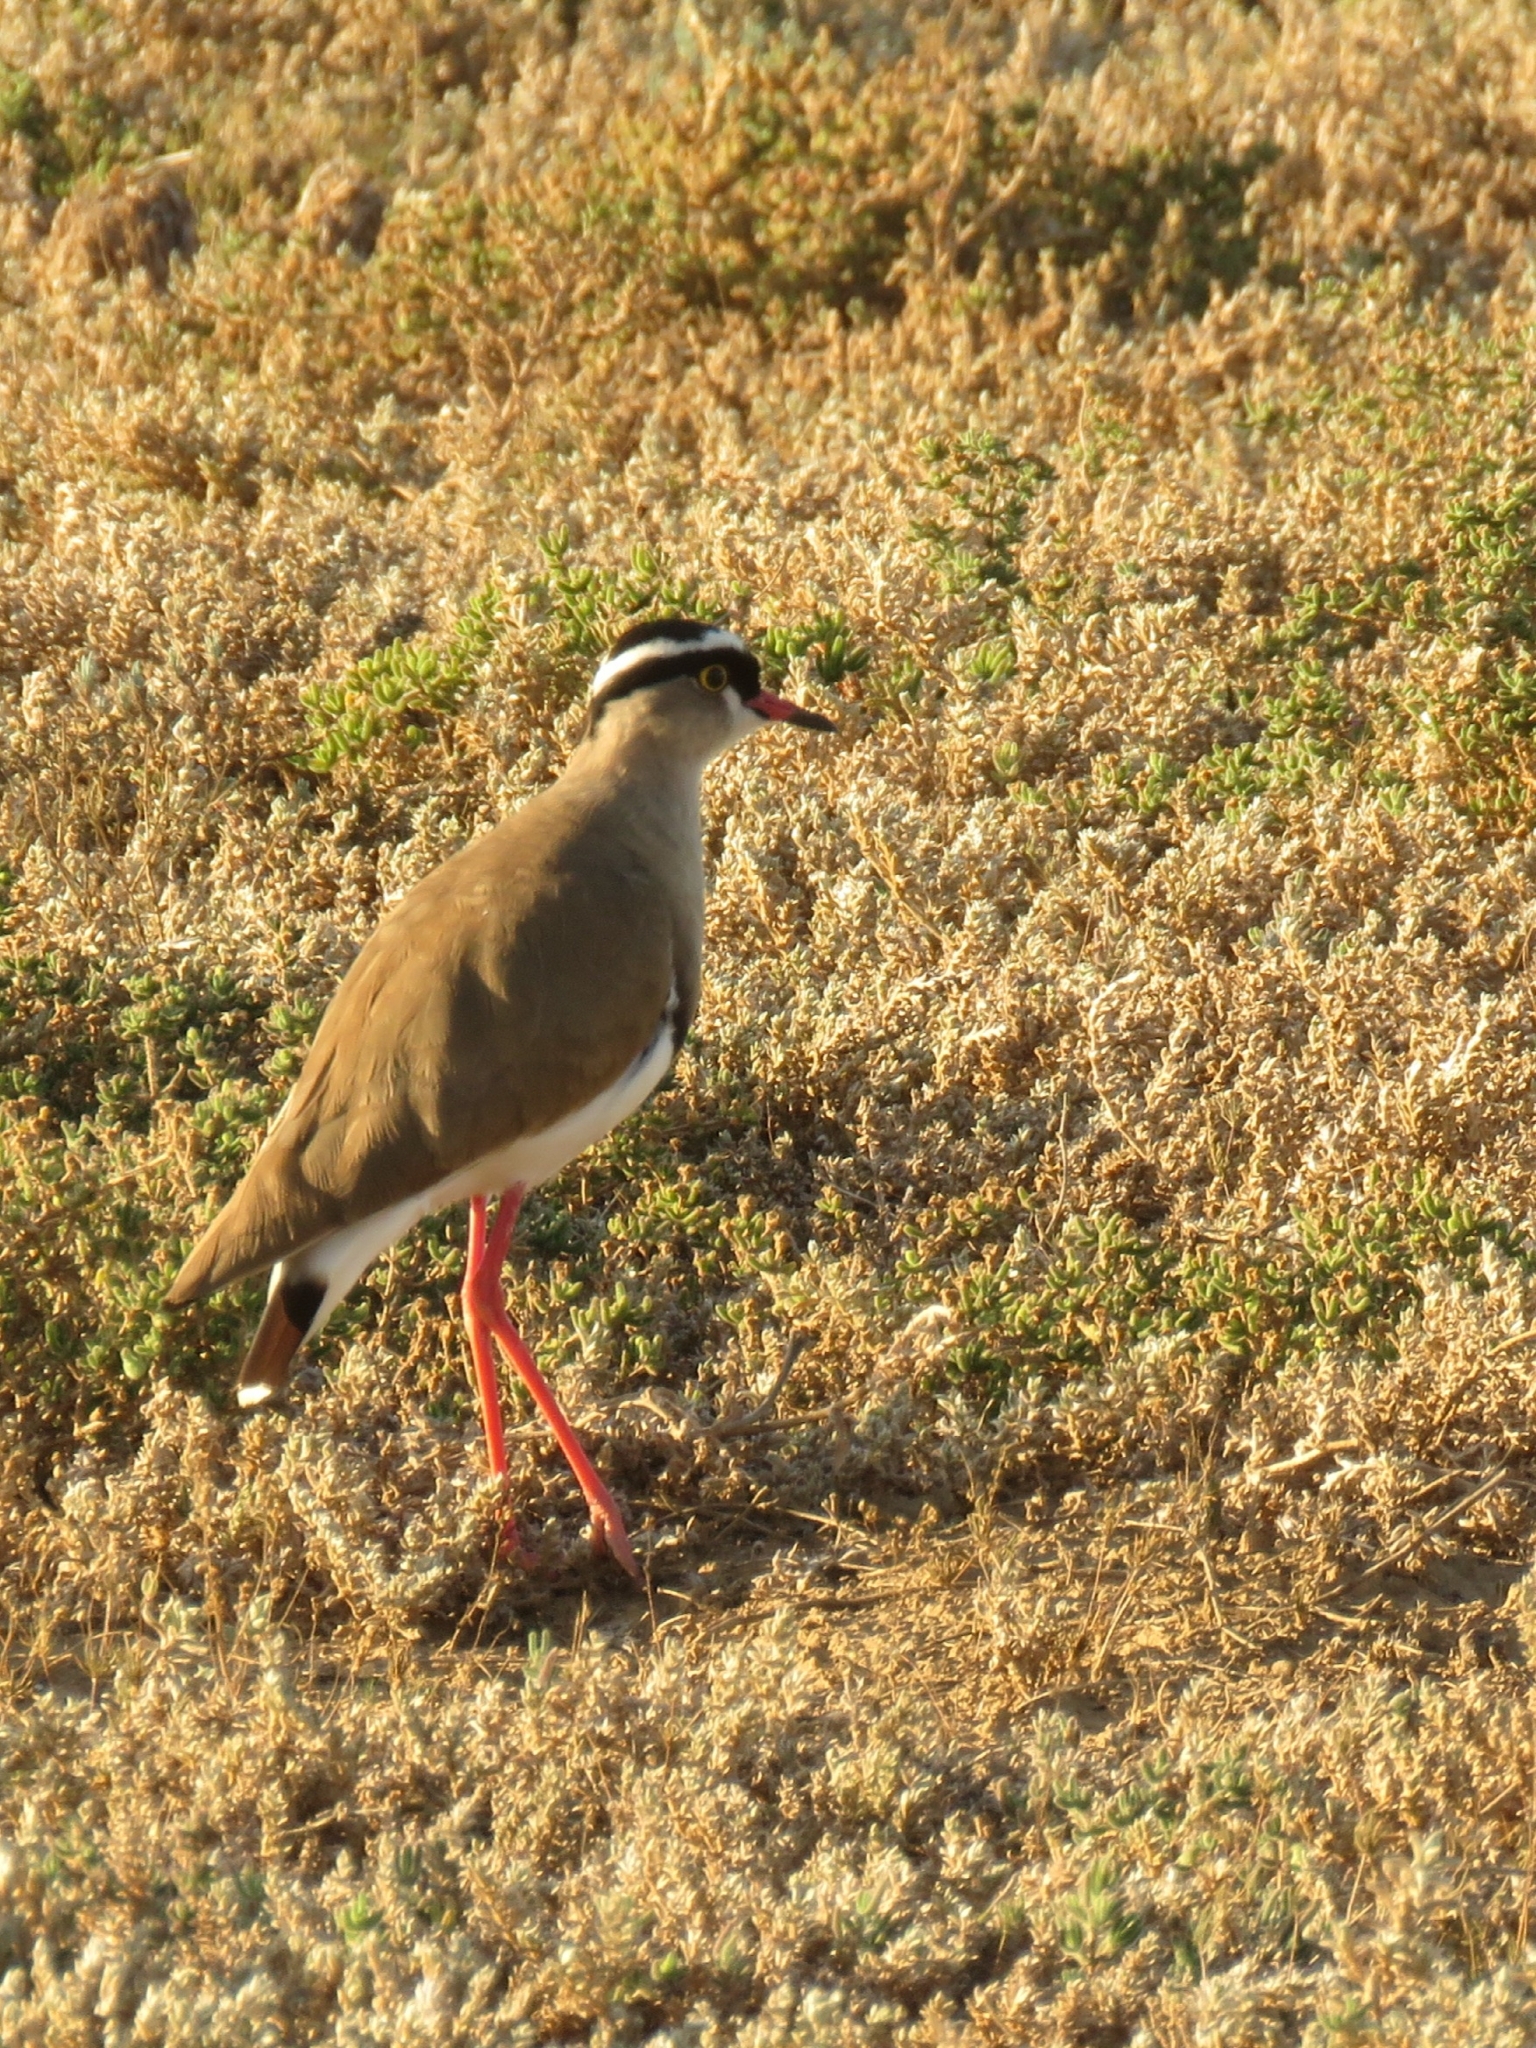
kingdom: Animalia
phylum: Chordata
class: Aves
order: Charadriiformes
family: Charadriidae
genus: Vanellus
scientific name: Vanellus coronatus
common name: Crowned lapwing
